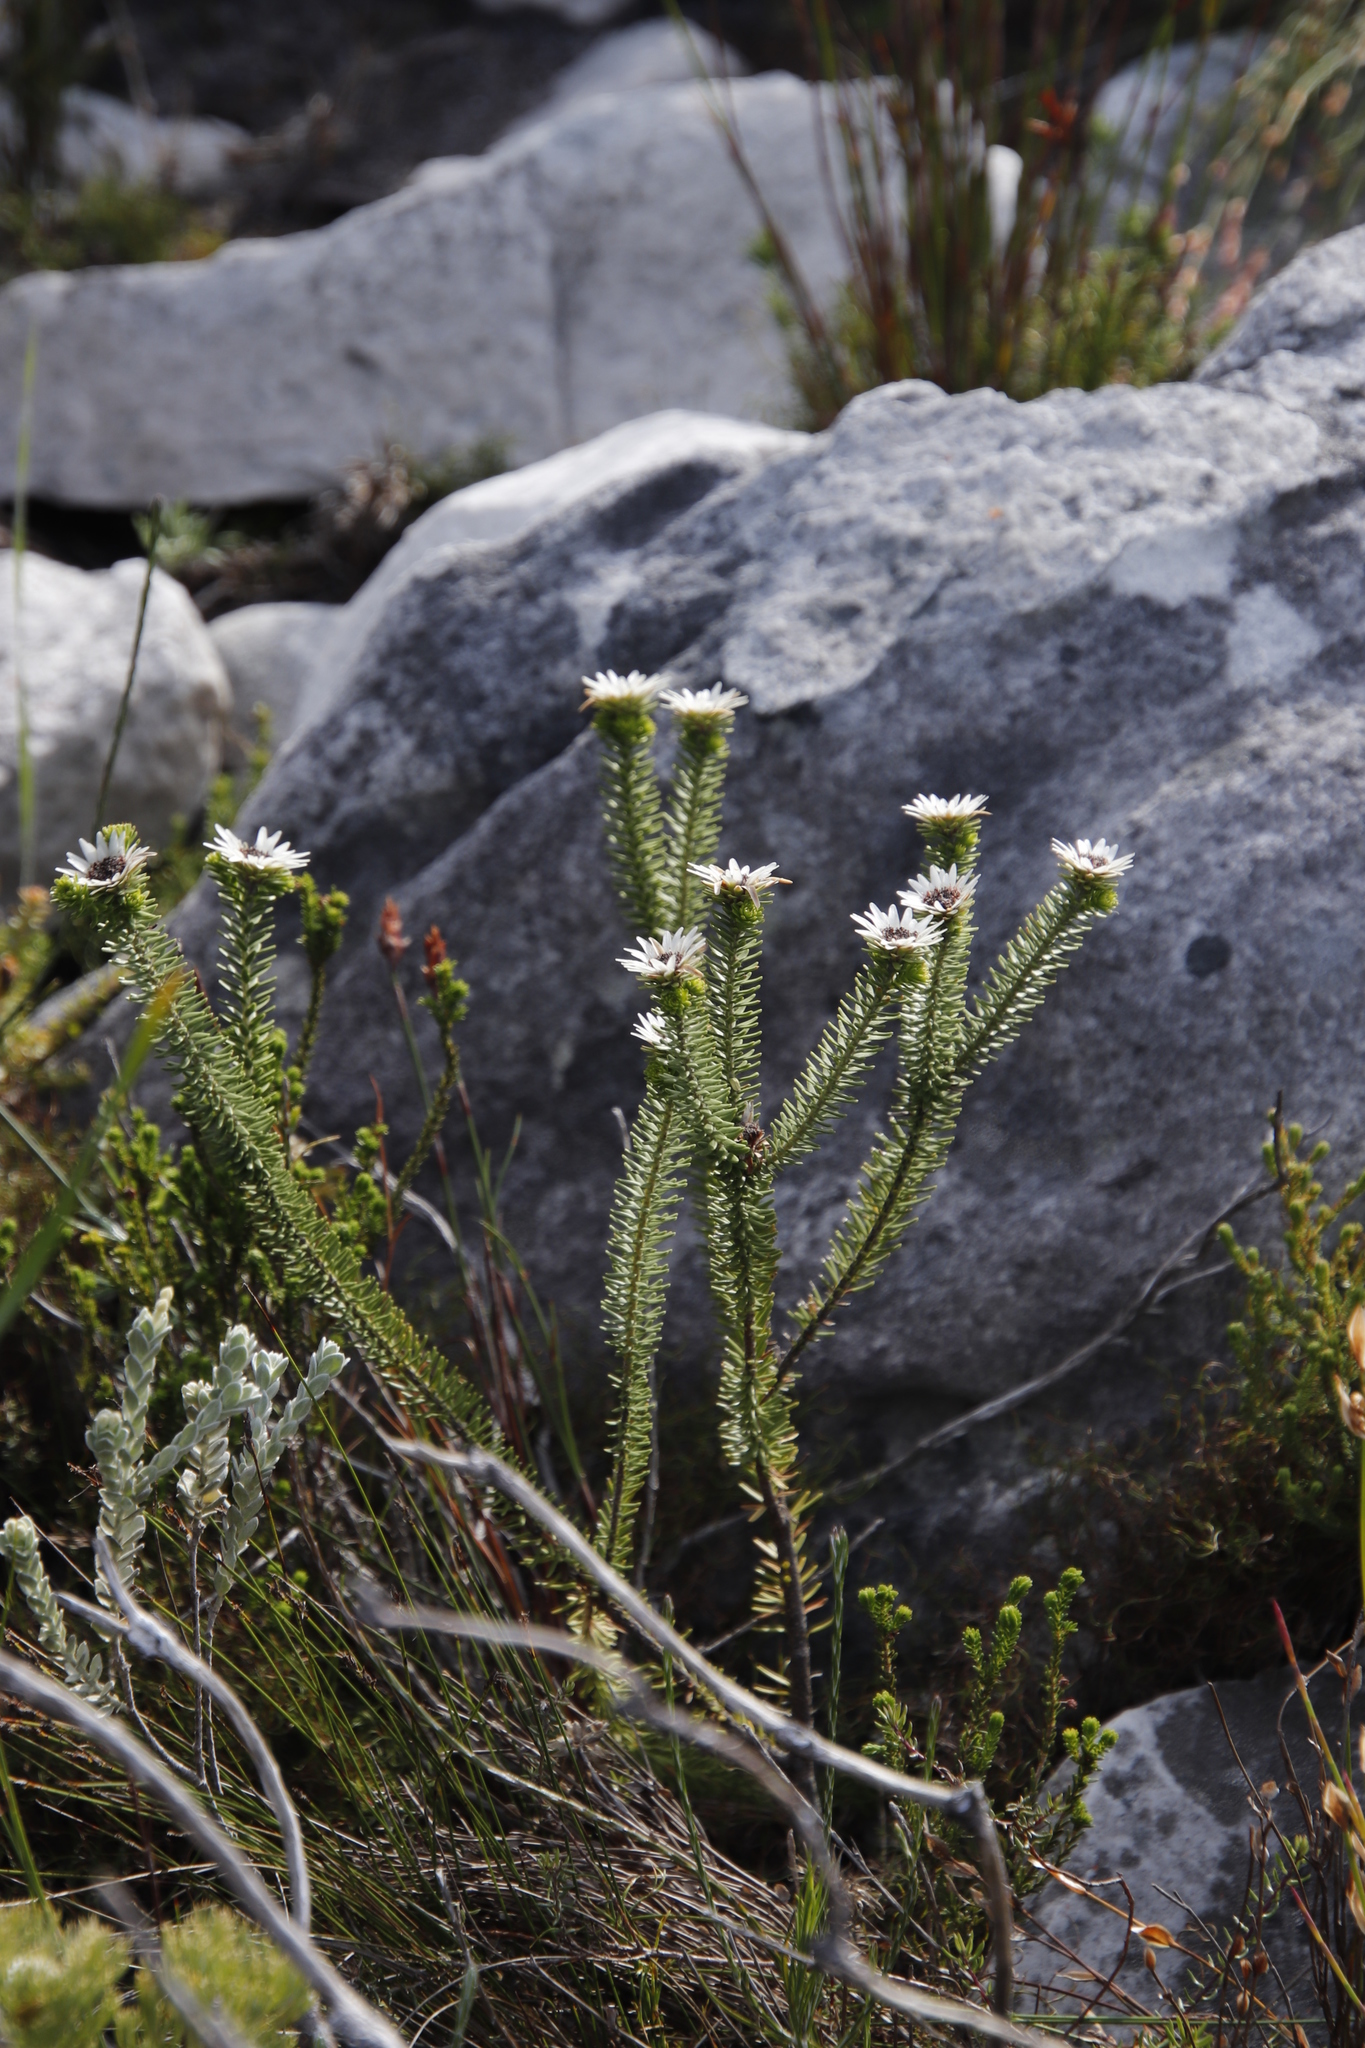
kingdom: Plantae
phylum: Tracheophyta
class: Magnoliopsida
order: Bruniales
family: Bruniaceae
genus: Staavia
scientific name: Staavia dodii
